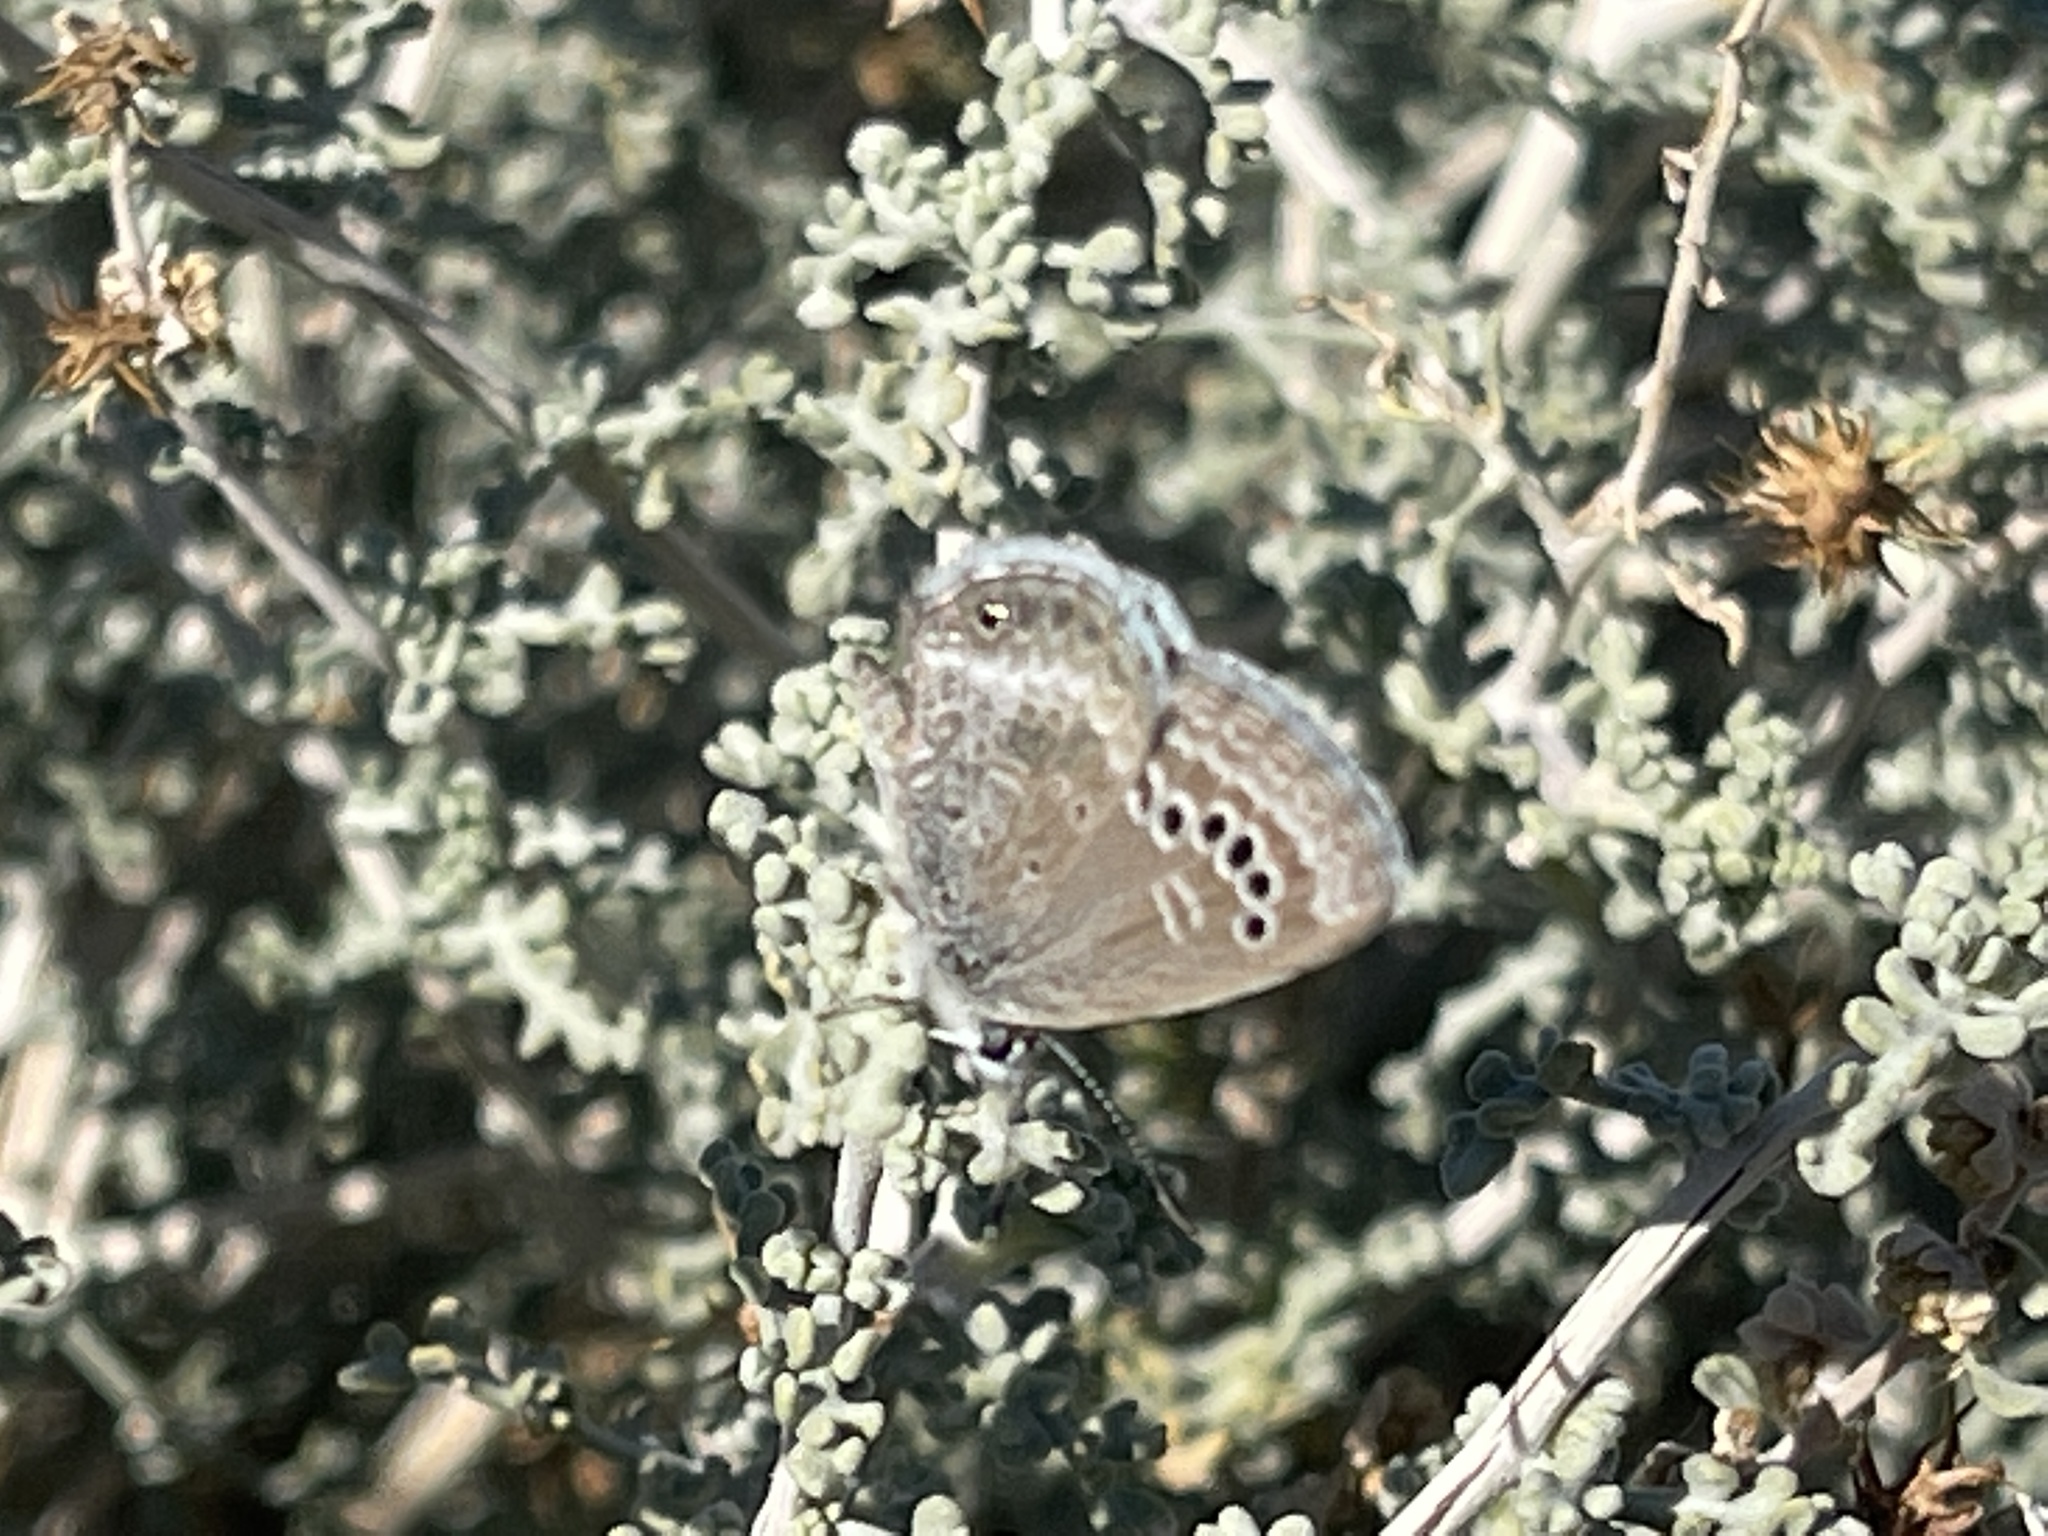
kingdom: Animalia
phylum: Arthropoda
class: Insecta
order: Lepidoptera
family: Lycaenidae
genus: Echinargus
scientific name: Echinargus isola
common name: Reakirt's blue
